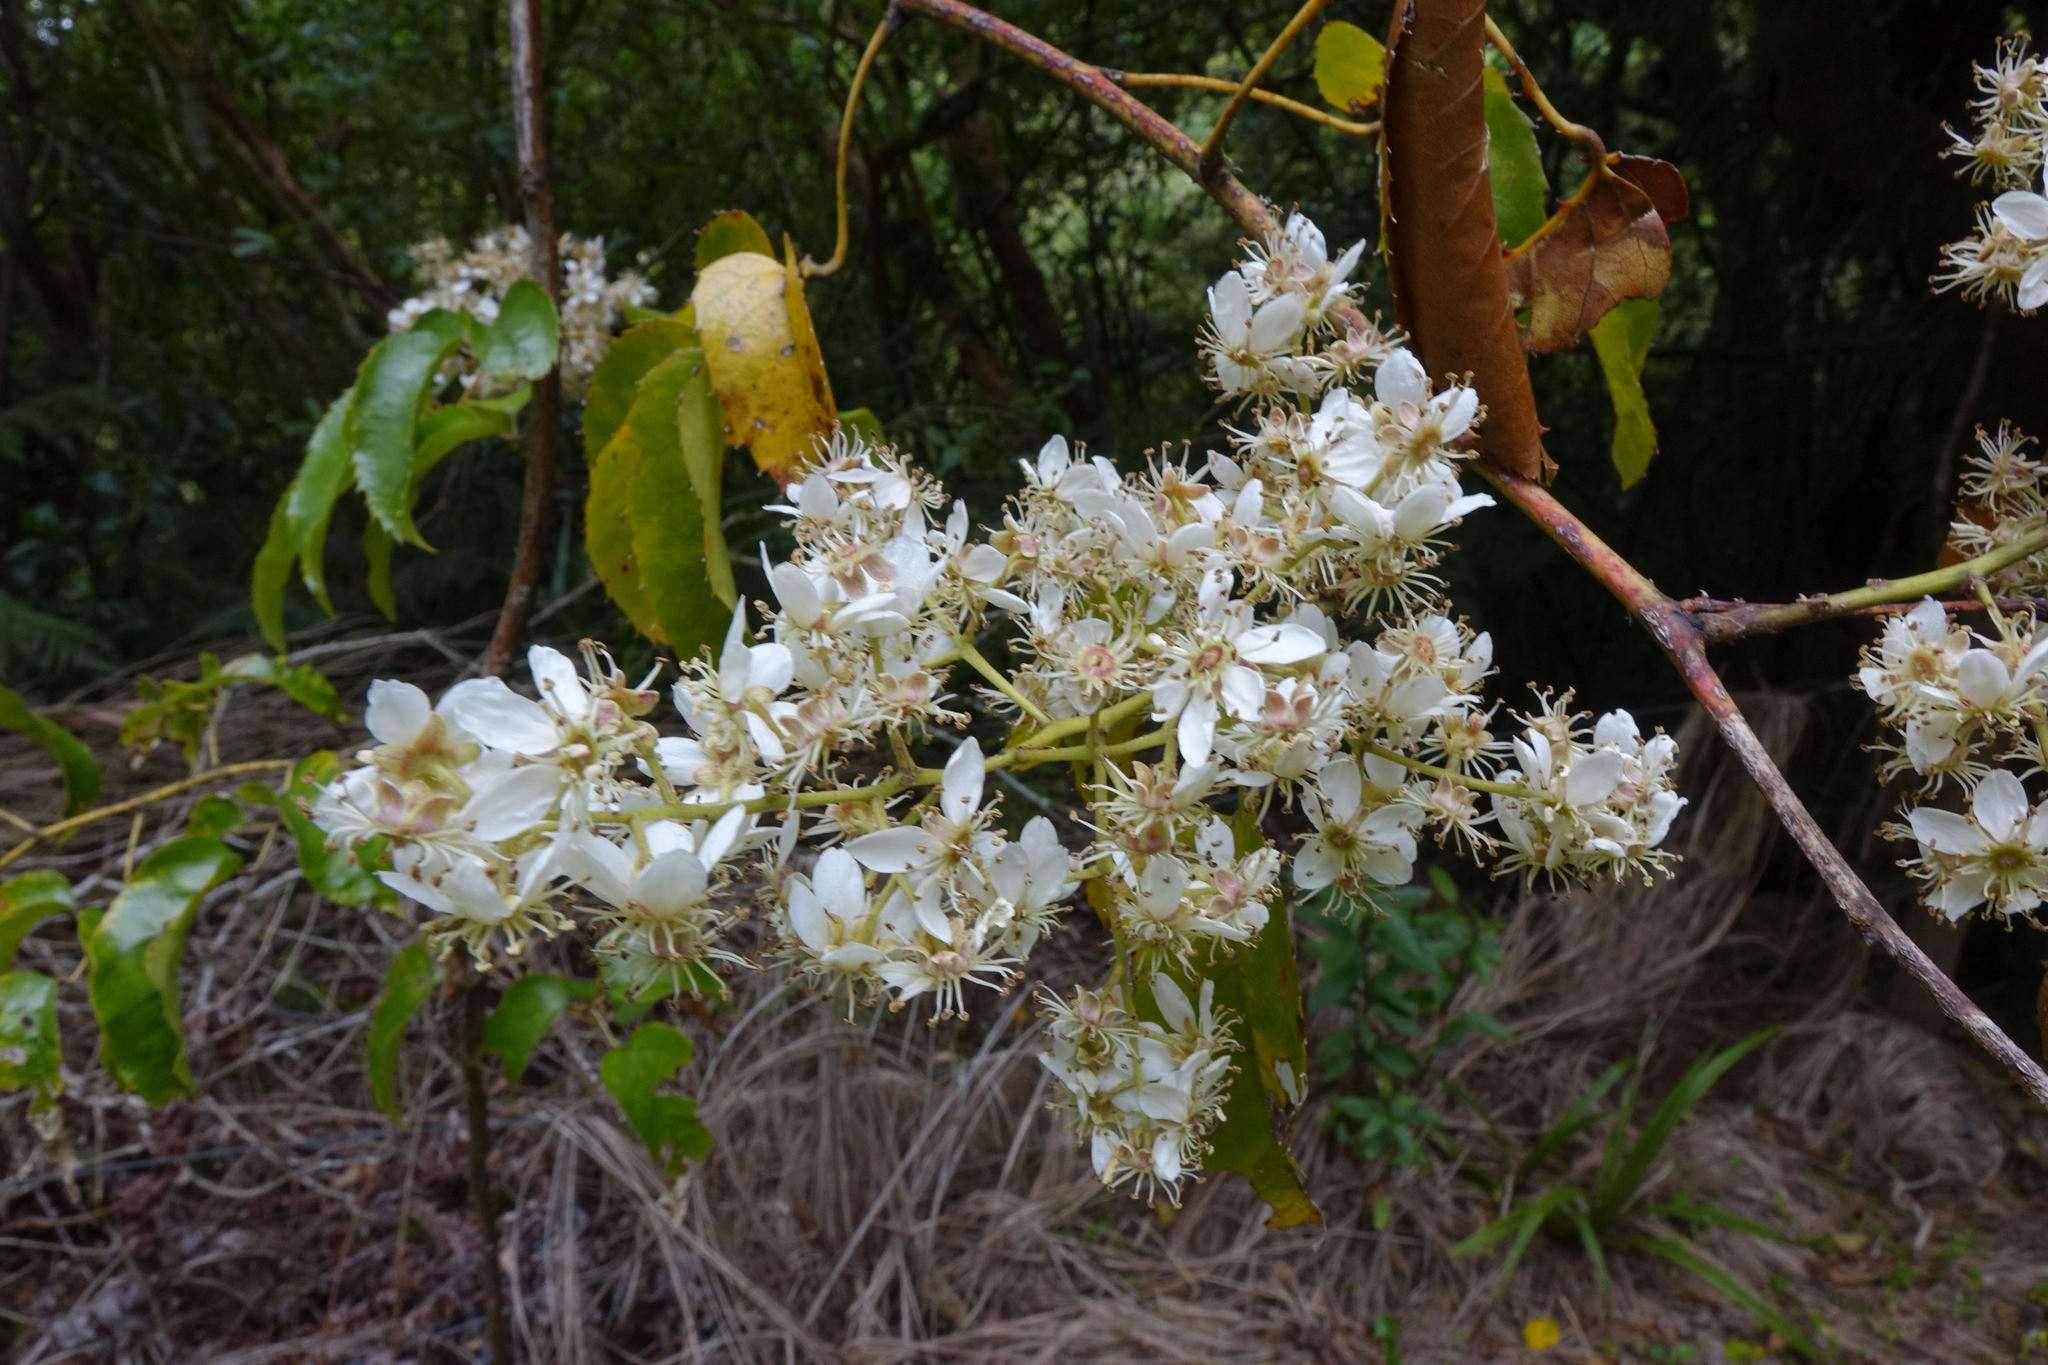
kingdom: Plantae
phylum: Tracheophyta
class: Magnoliopsida
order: Rosales
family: Rosaceae
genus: Rubus
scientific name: Rubus cissoides
